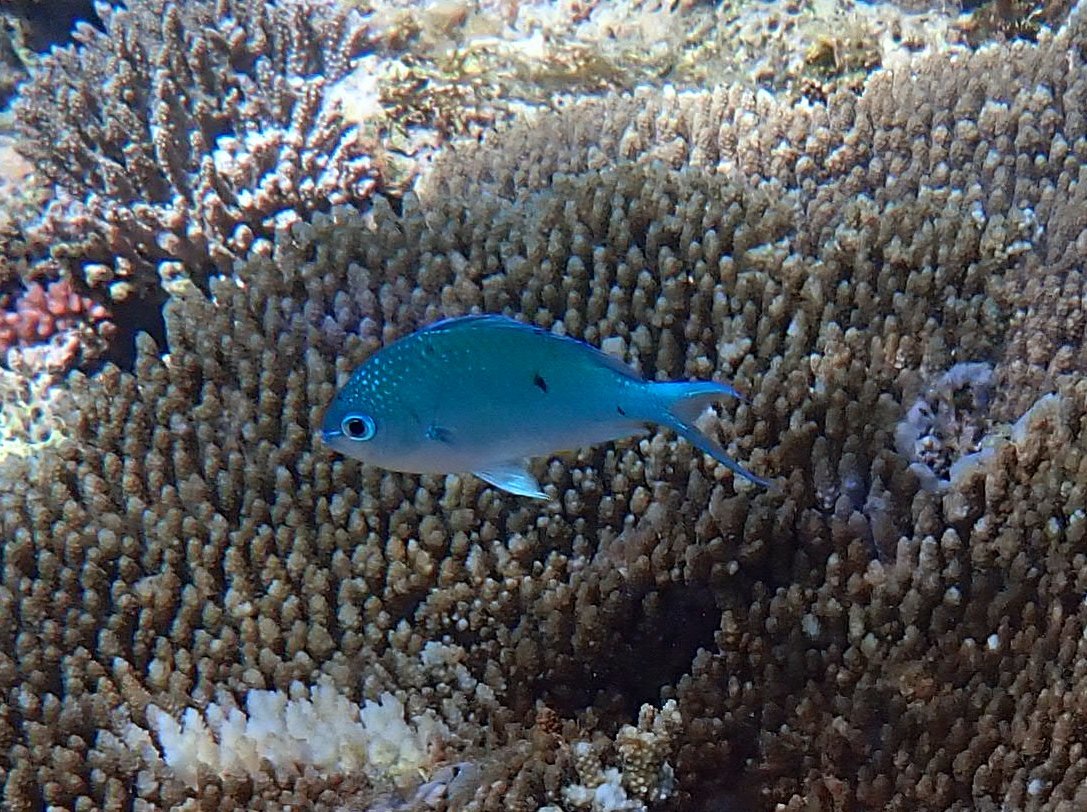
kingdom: Animalia
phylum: Chordata
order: Perciformes
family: Pomacentridae
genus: Chromis
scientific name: Chromis atripectoralis
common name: Black-axil chromis
